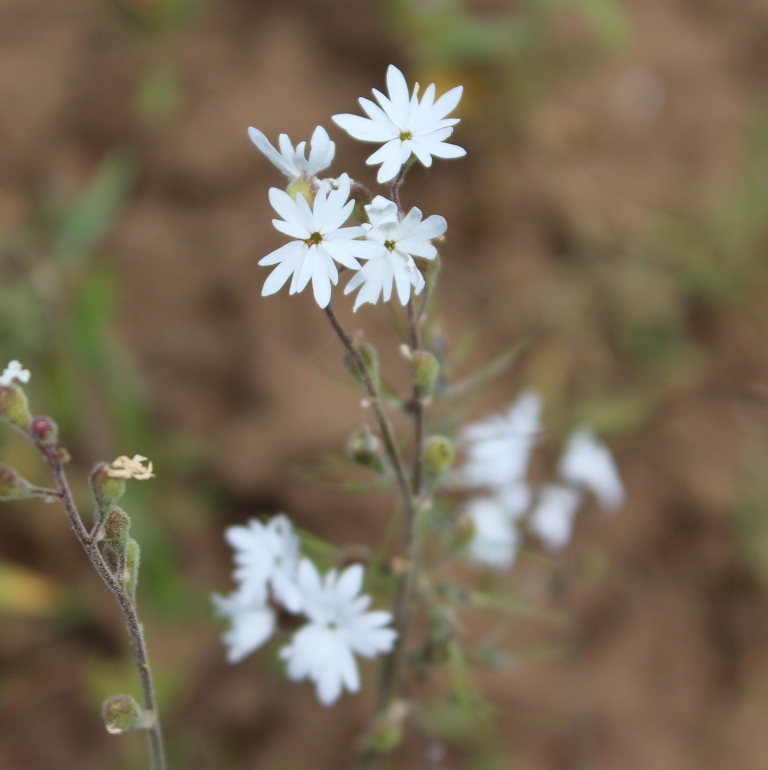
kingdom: Plantae
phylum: Tracheophyta
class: Magnoliopsida
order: Saxifragales
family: Saxifragaceae
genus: Lithophragma
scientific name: Lithophragma parviflorum
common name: Small-flowered fringe-cup
